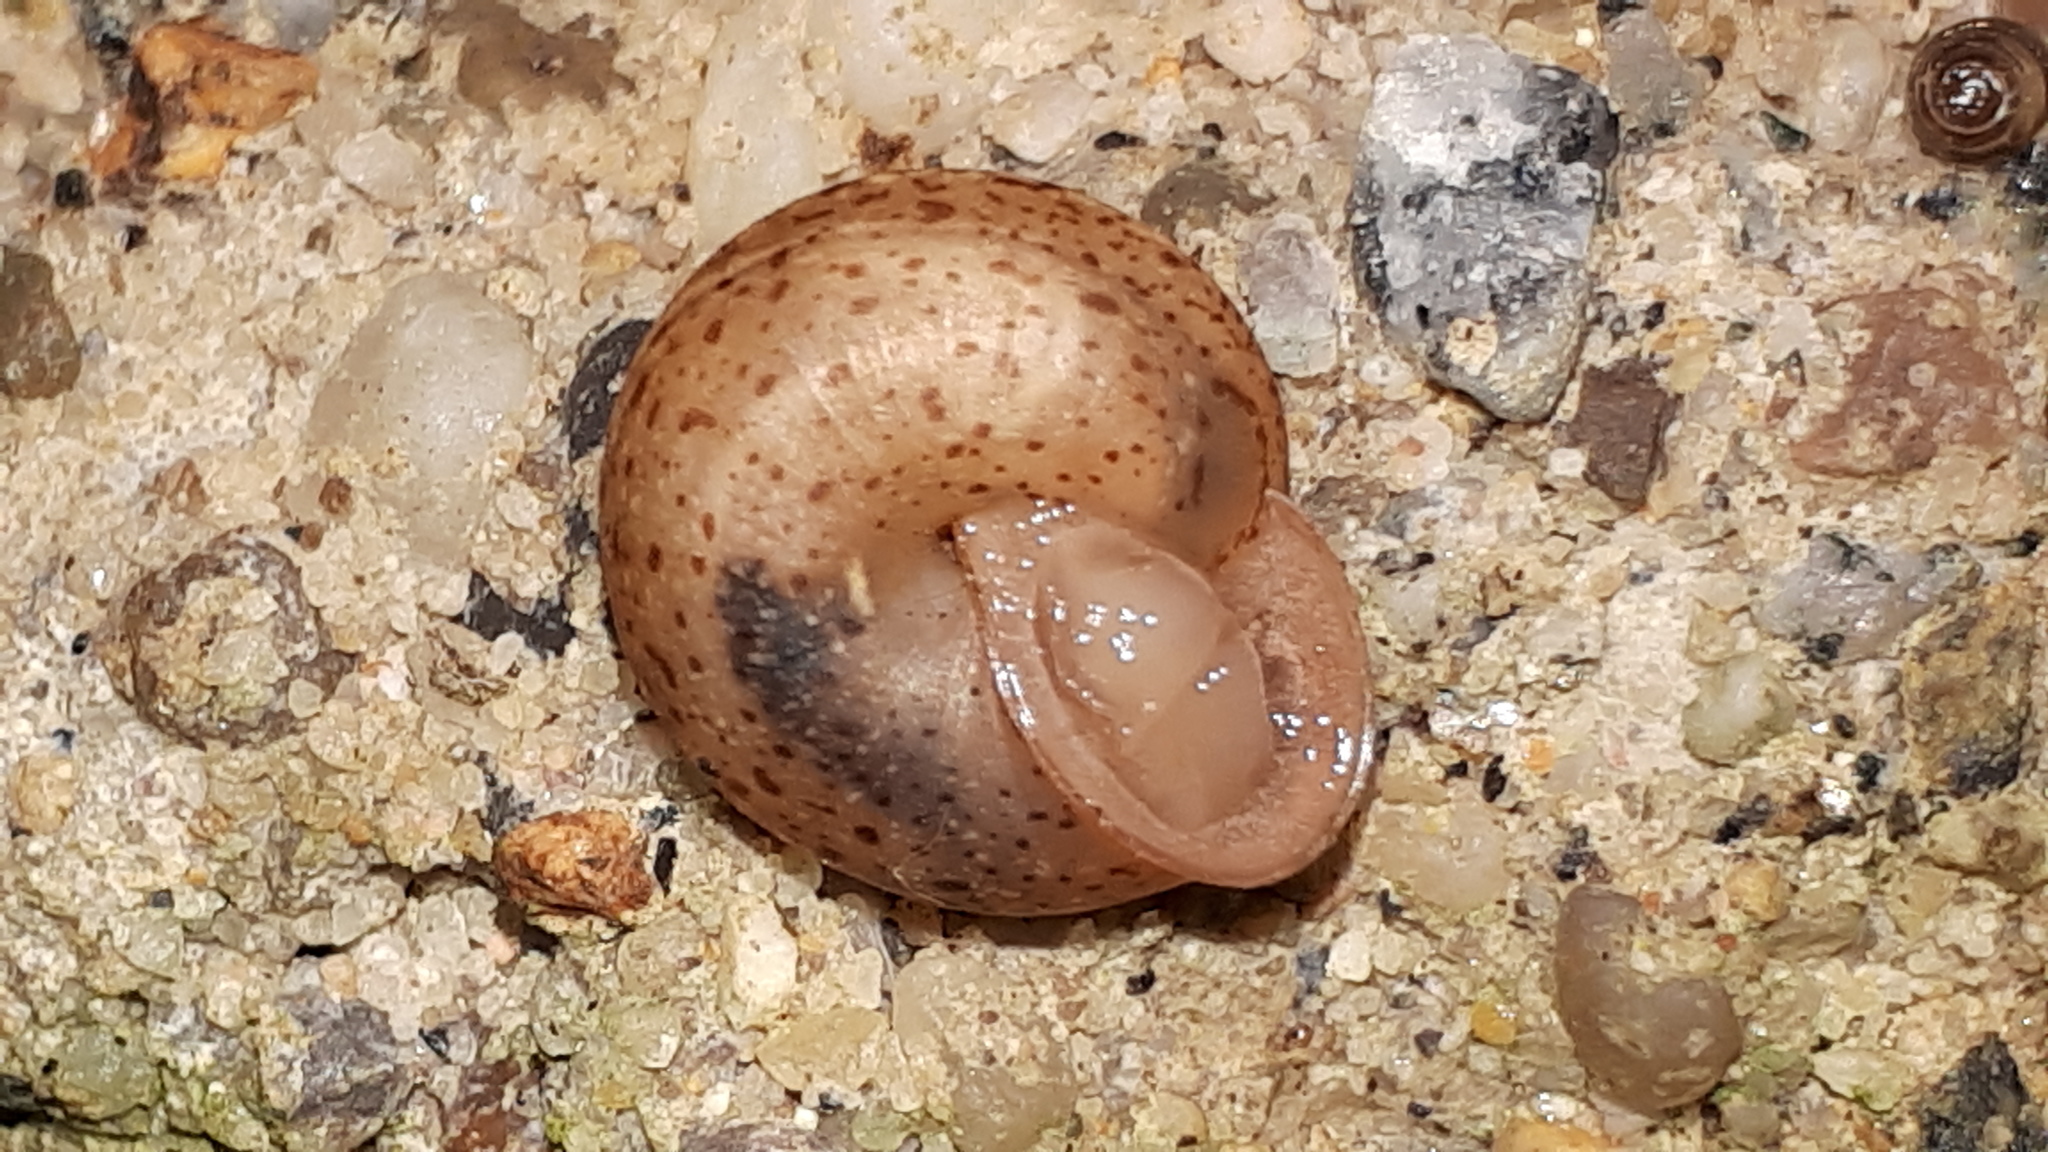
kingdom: Animalia
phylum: Mollusca
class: Gastropoda
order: Stylommatophora
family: Hygromiidae
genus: Monachoides
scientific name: Monachoides incarnatus
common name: Incarnate snail
